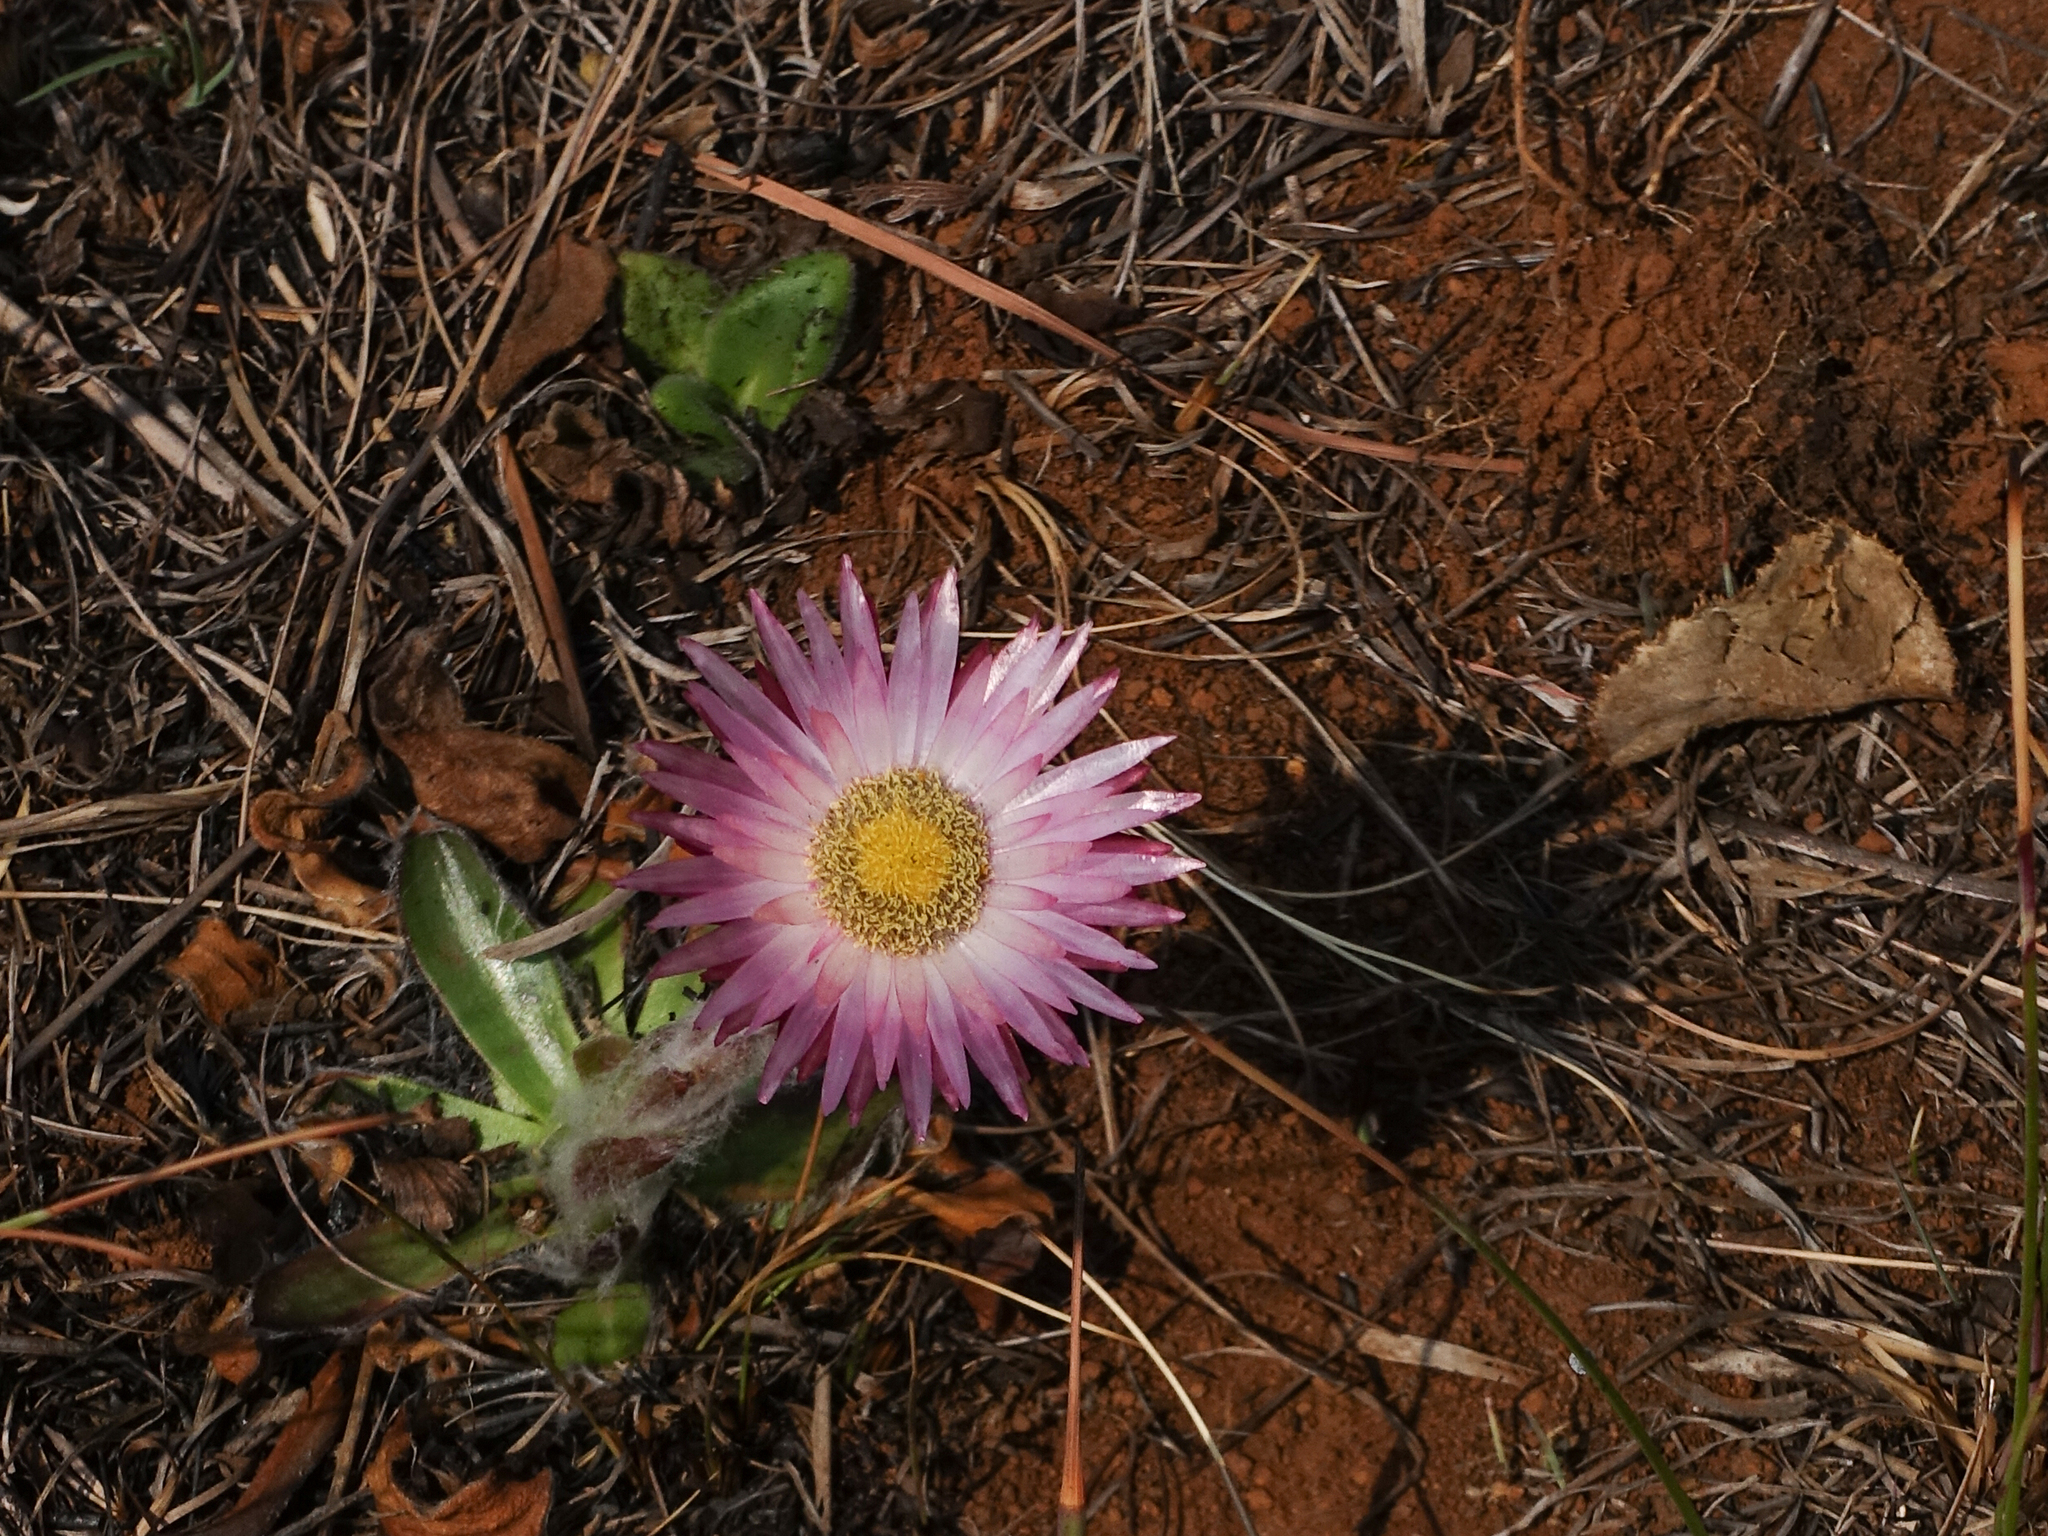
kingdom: Plantae
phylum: Tracheophyta
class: Magnoliopsida
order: Asterales
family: Asteraceae
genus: Helichrysum
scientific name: Helichrysum ecklonis
